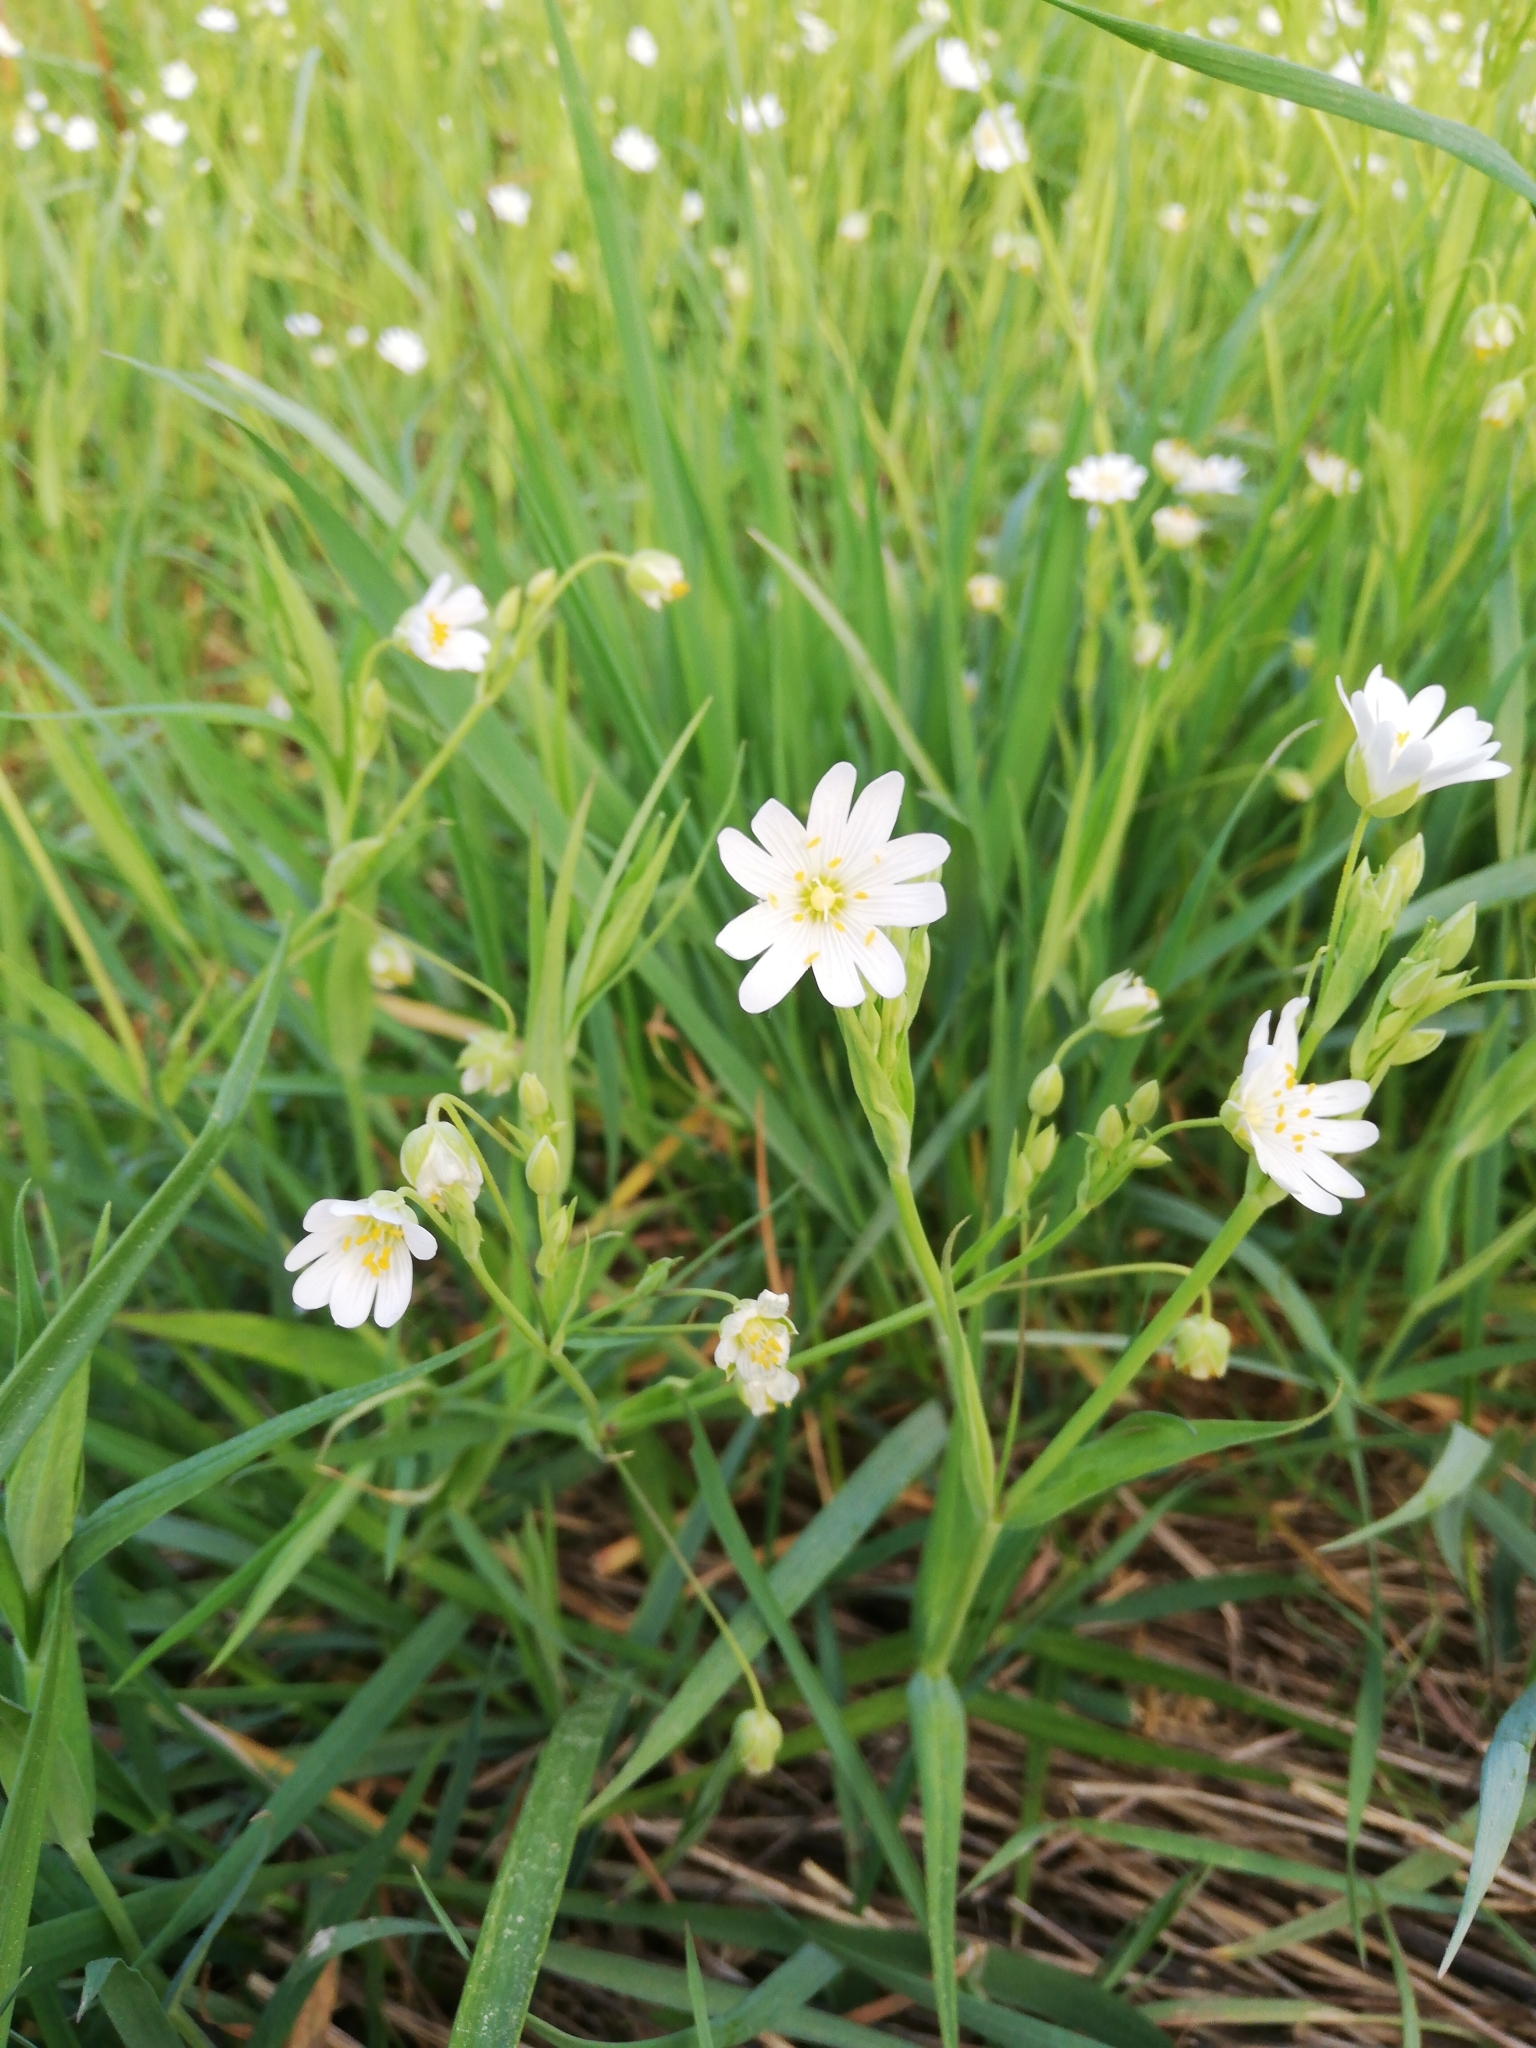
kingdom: Plantae
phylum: Tracheophyta
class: Magnoliopsida
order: Caryophyllales
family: Caryophyllaceae
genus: Rabelera
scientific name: Rabelera holostea
